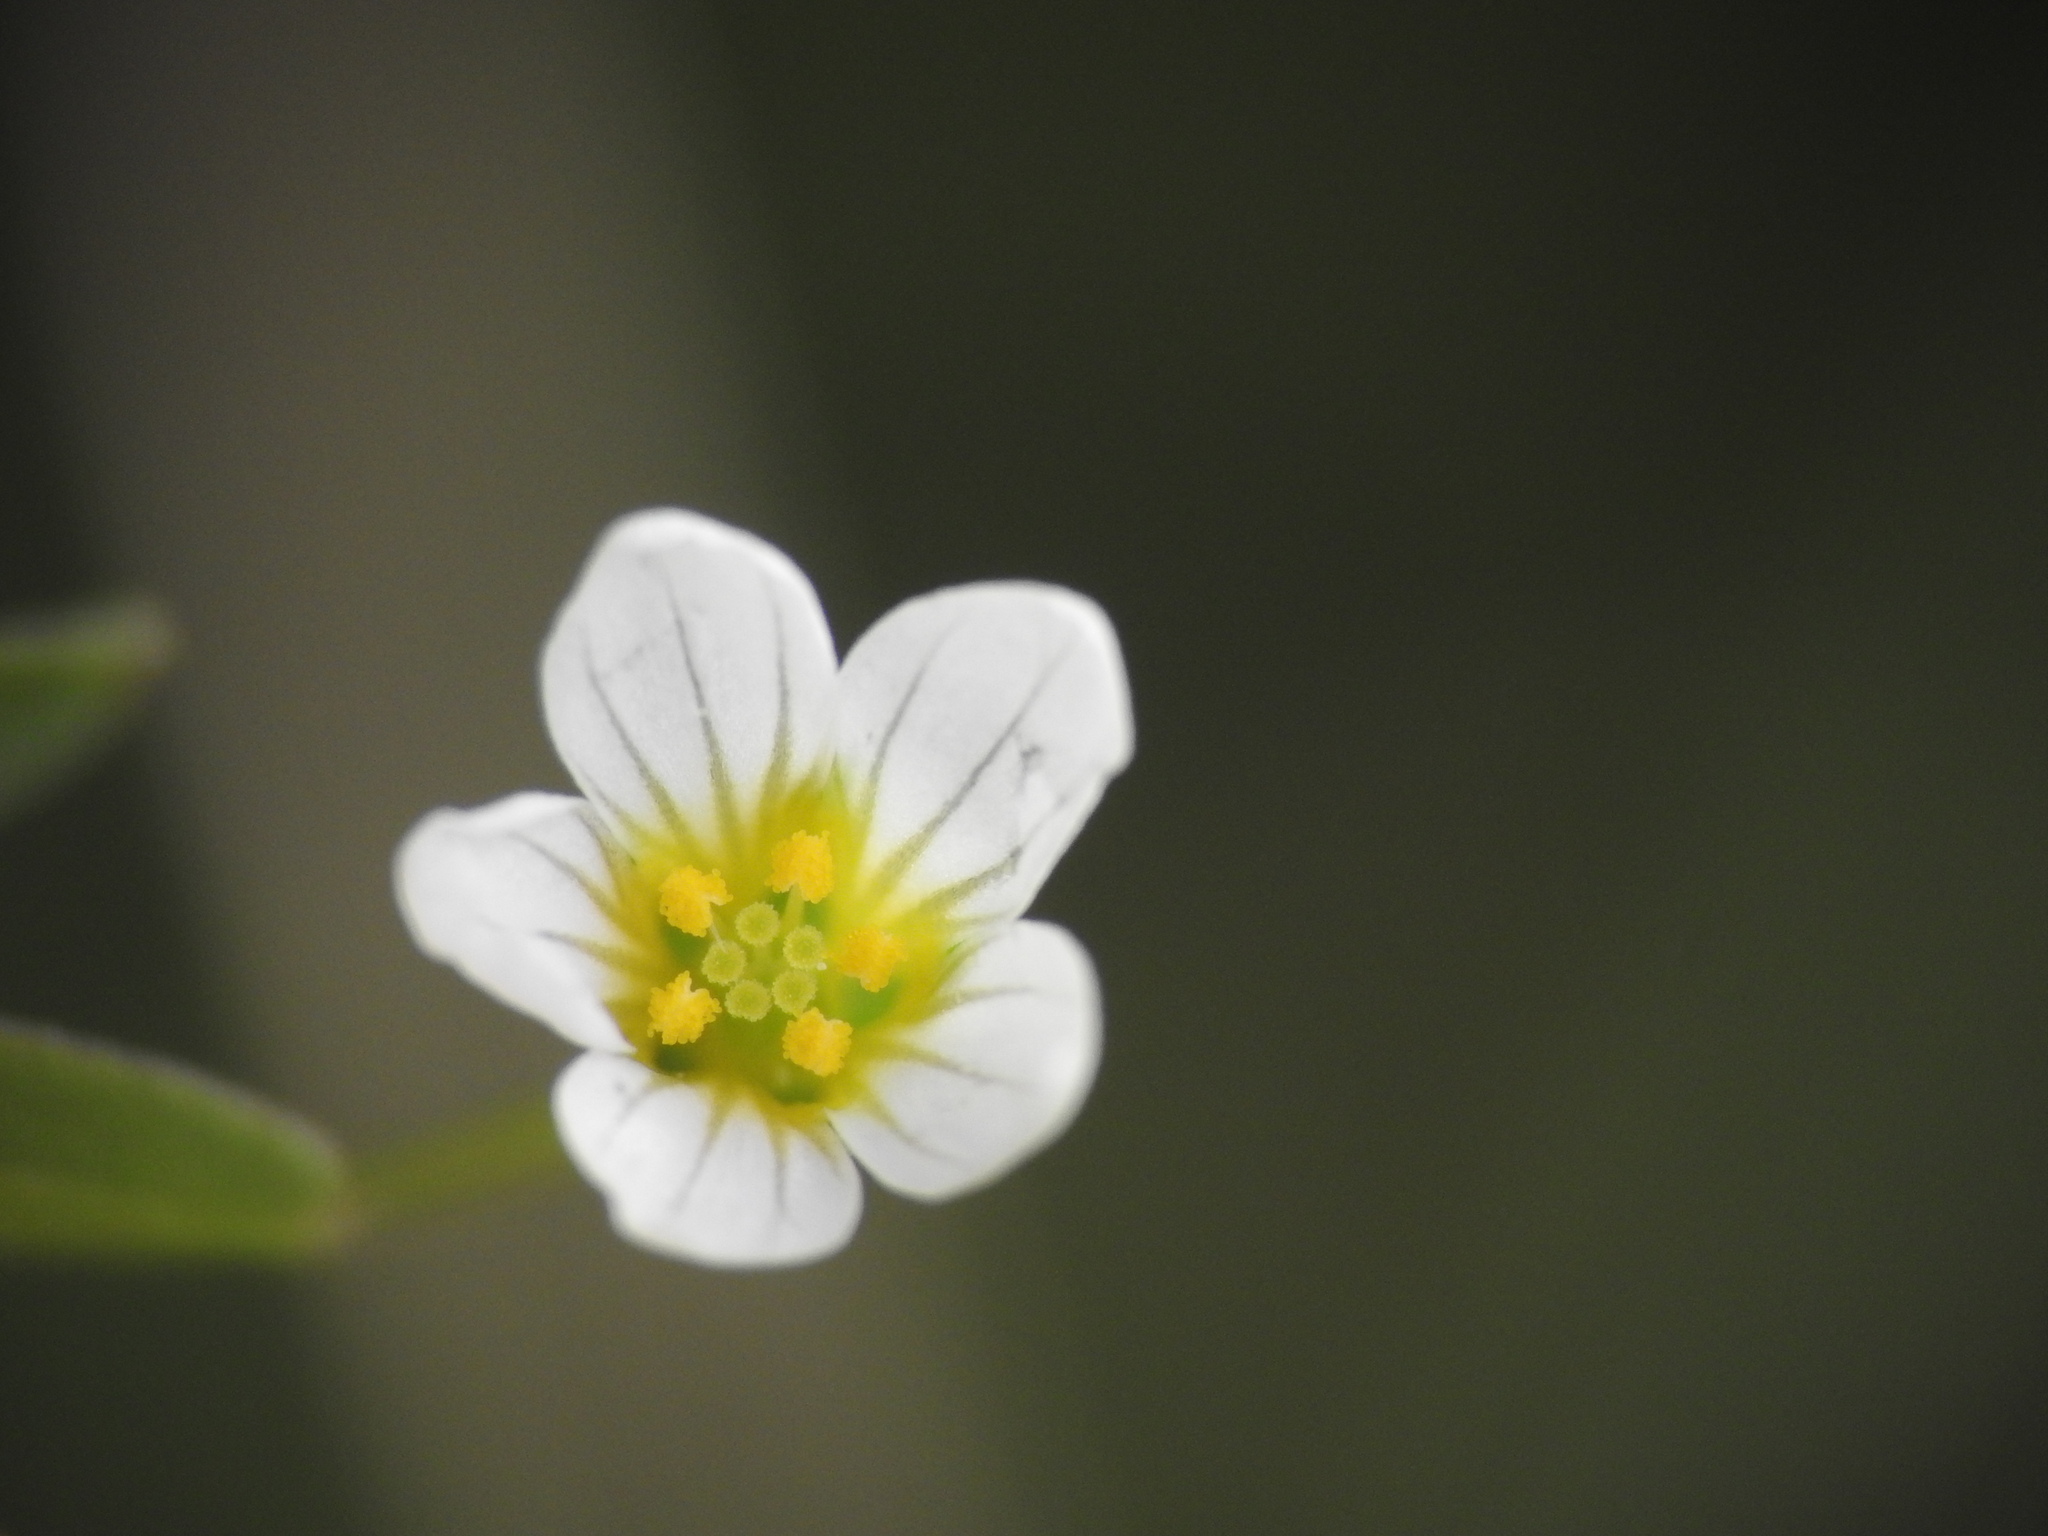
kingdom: Plantae
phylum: Tracheophyta
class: Magnoliopsida
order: Malpighiales
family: Linaceae
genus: Linum
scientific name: Linum catharticum
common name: Fairy flax
